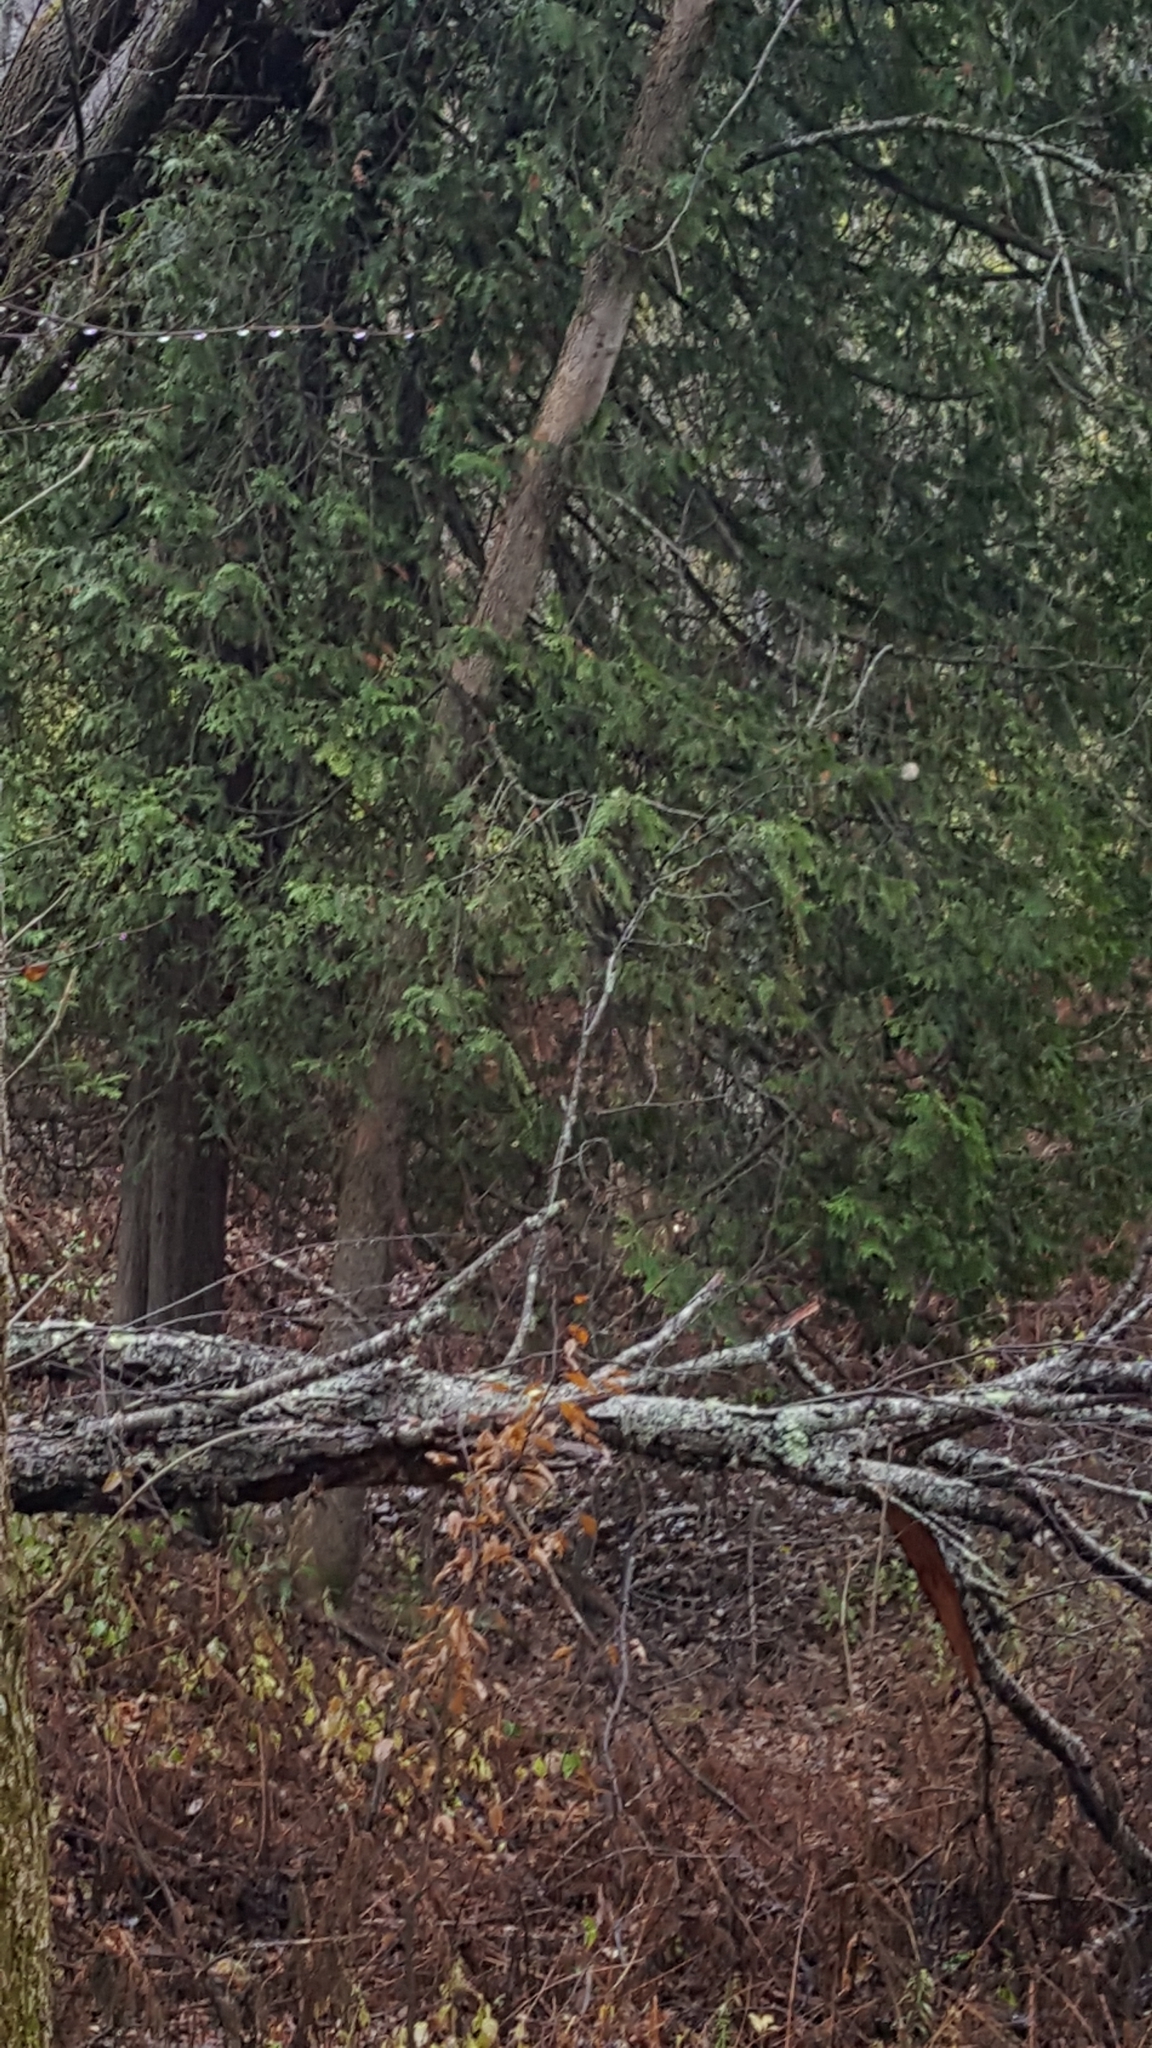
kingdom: Plantae
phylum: Tracheophyta
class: Pinopsida
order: Pinales
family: Cupressaceae
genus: Thuja
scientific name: Thuja occidentalis
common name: Northern white-cedar
